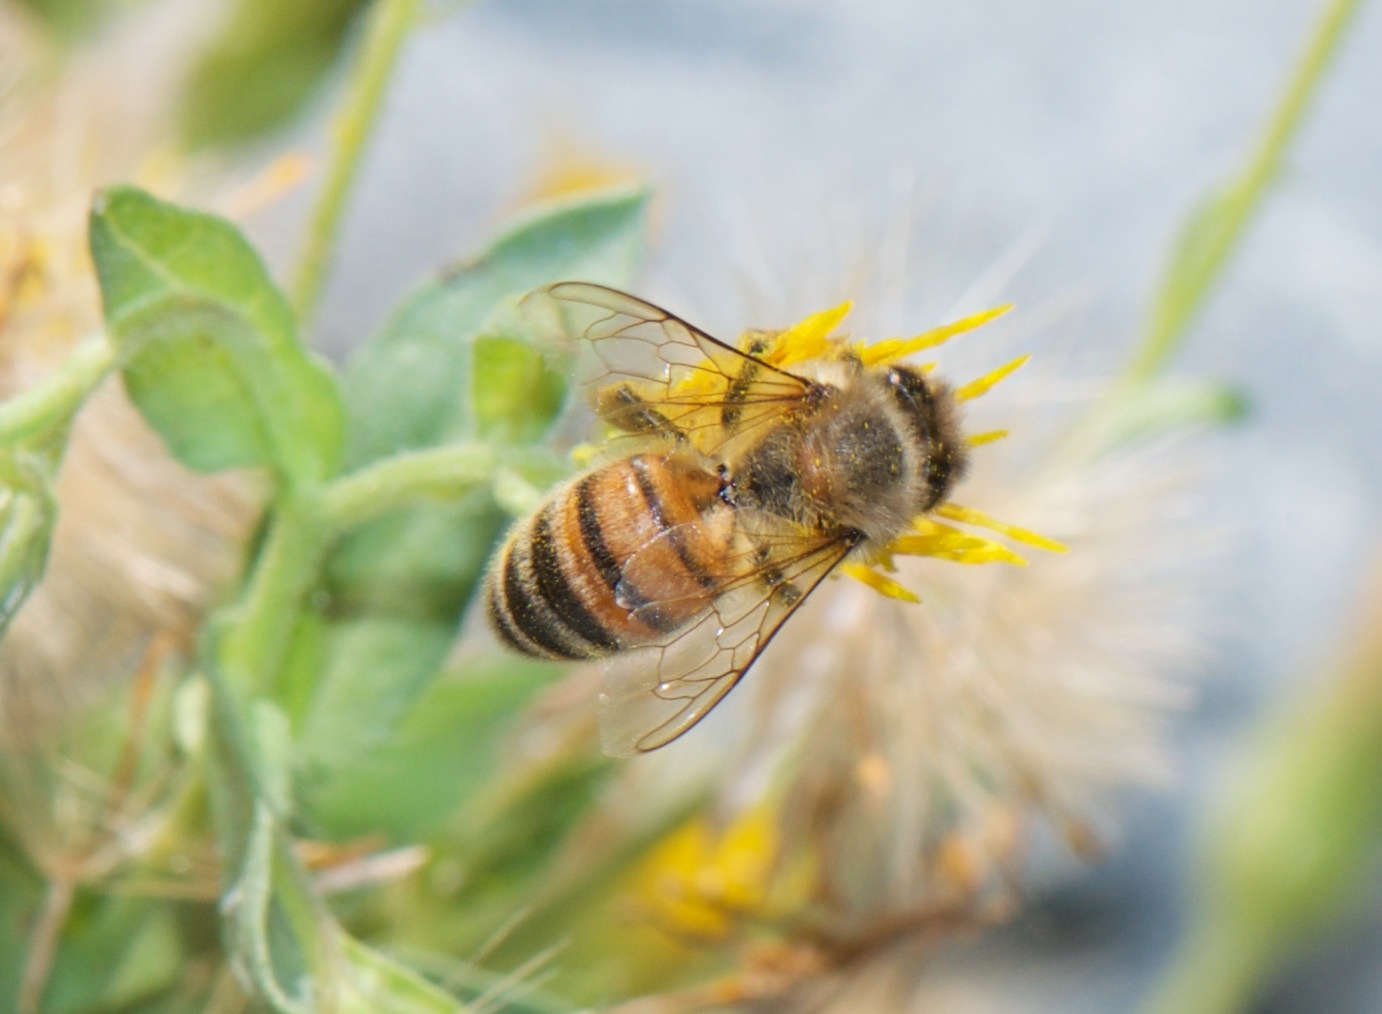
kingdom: Animalia
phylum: Arthropoda
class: Insecta
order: Hymenoptera
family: Apidae
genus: Apis
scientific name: Apis mellifera
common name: Honey bee
